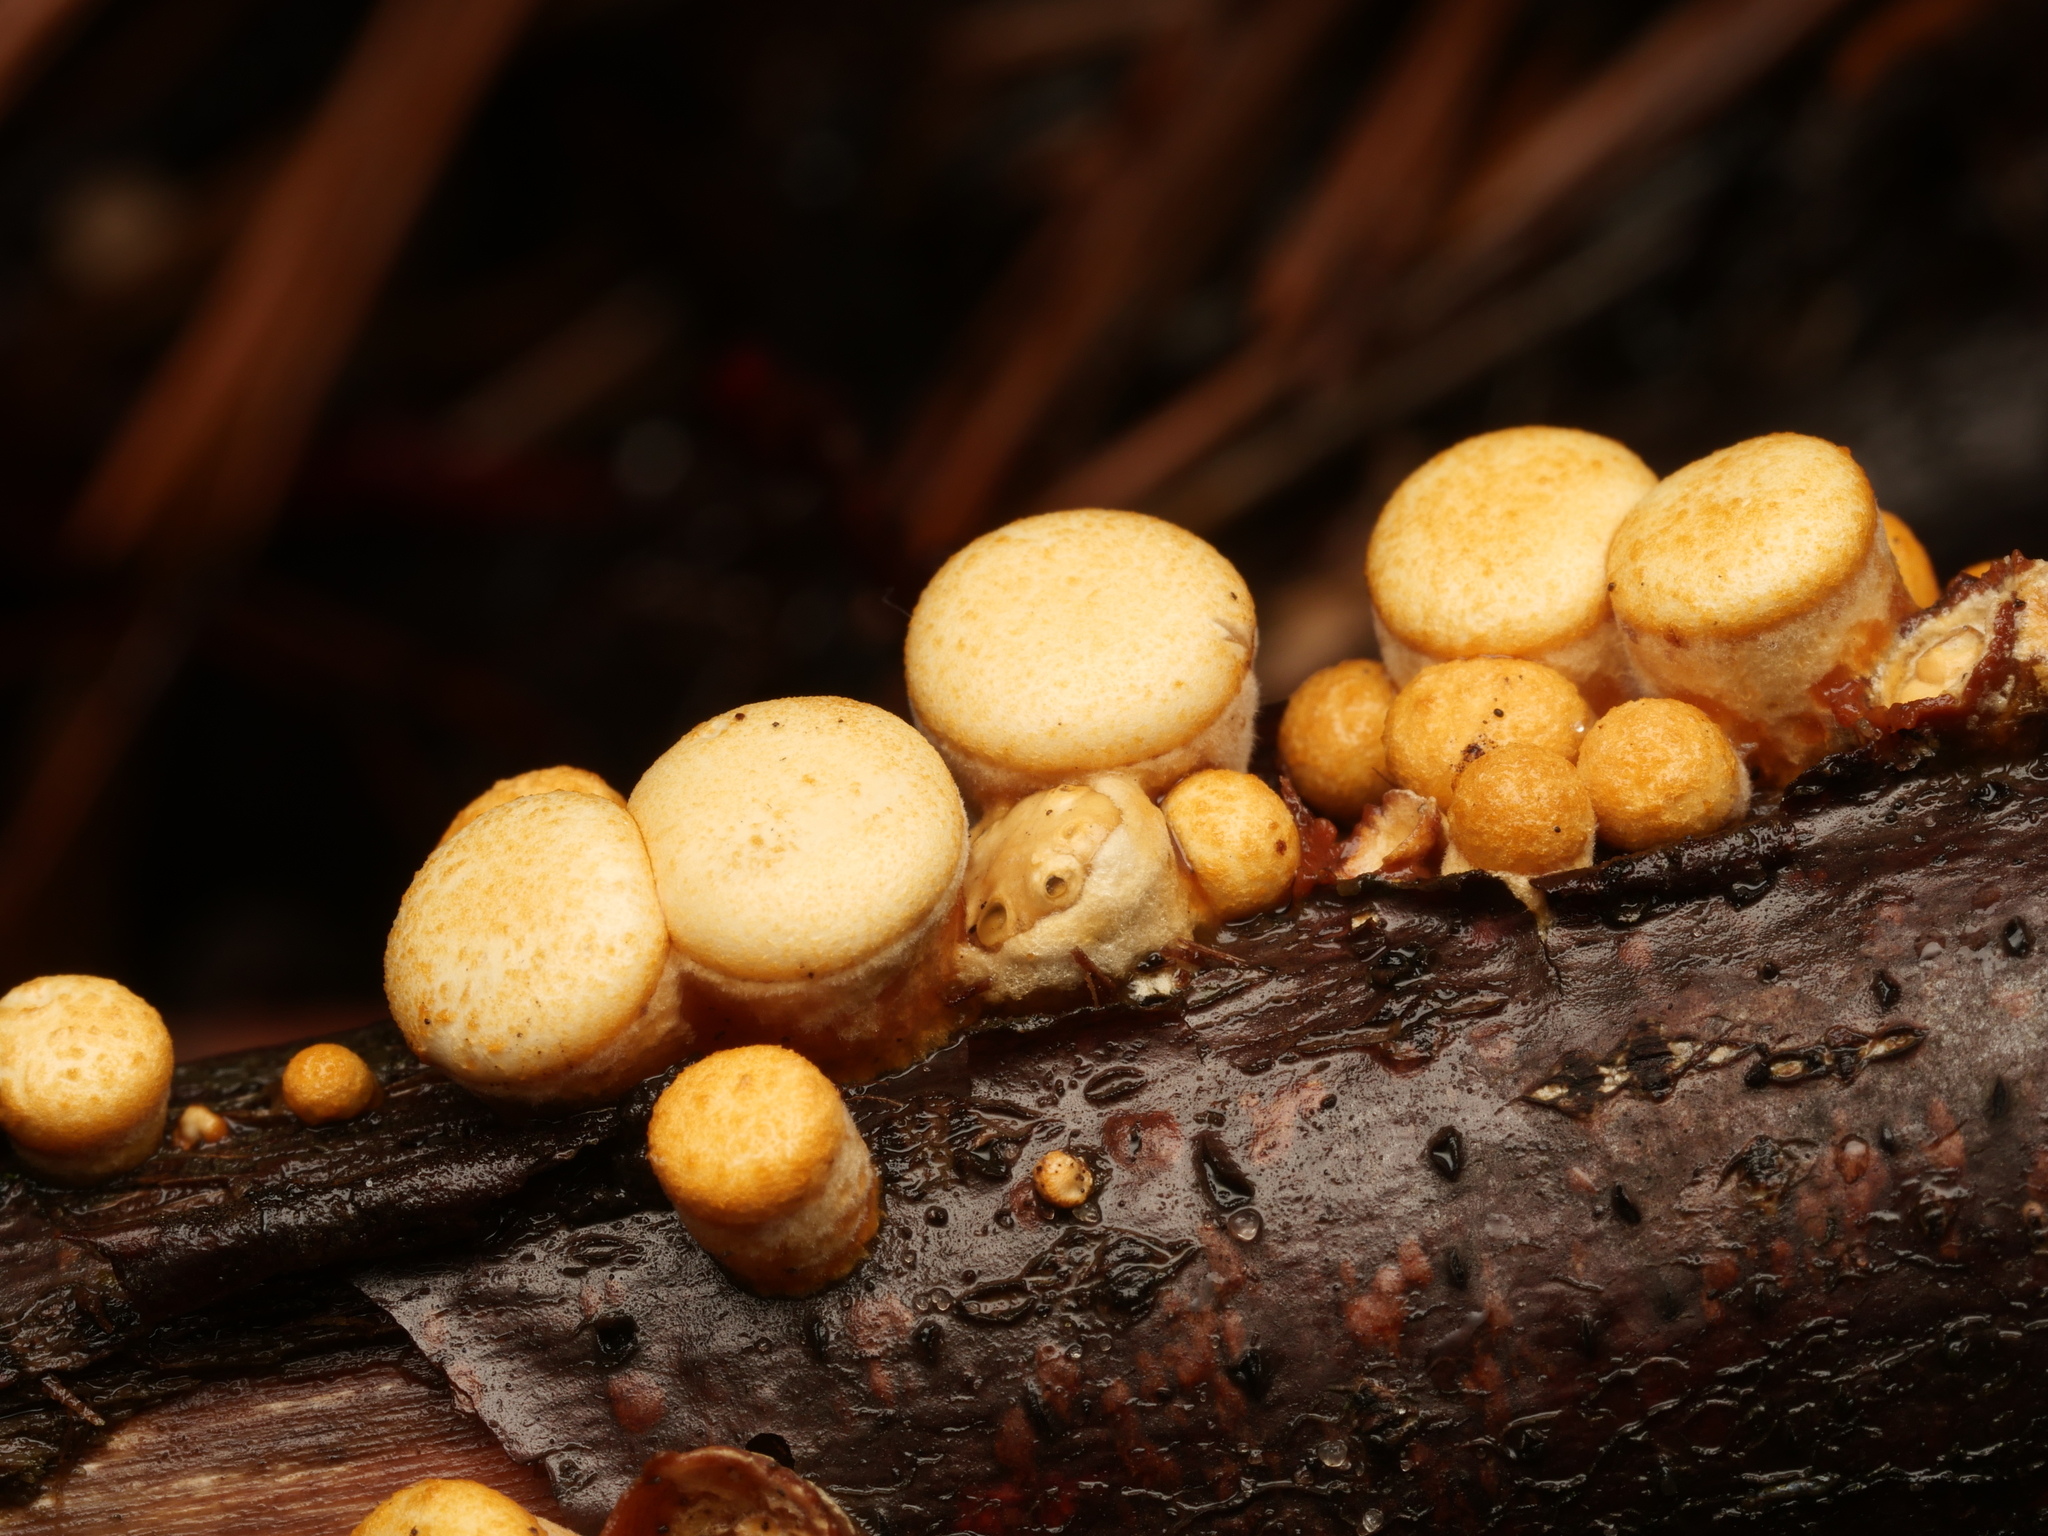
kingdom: Fungi
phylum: Basidiomycota
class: Agaricomycetes
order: Agaricales
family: Nidulariaceae
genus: Crucibulum
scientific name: Crucibulum laeve
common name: Common bird's nest
